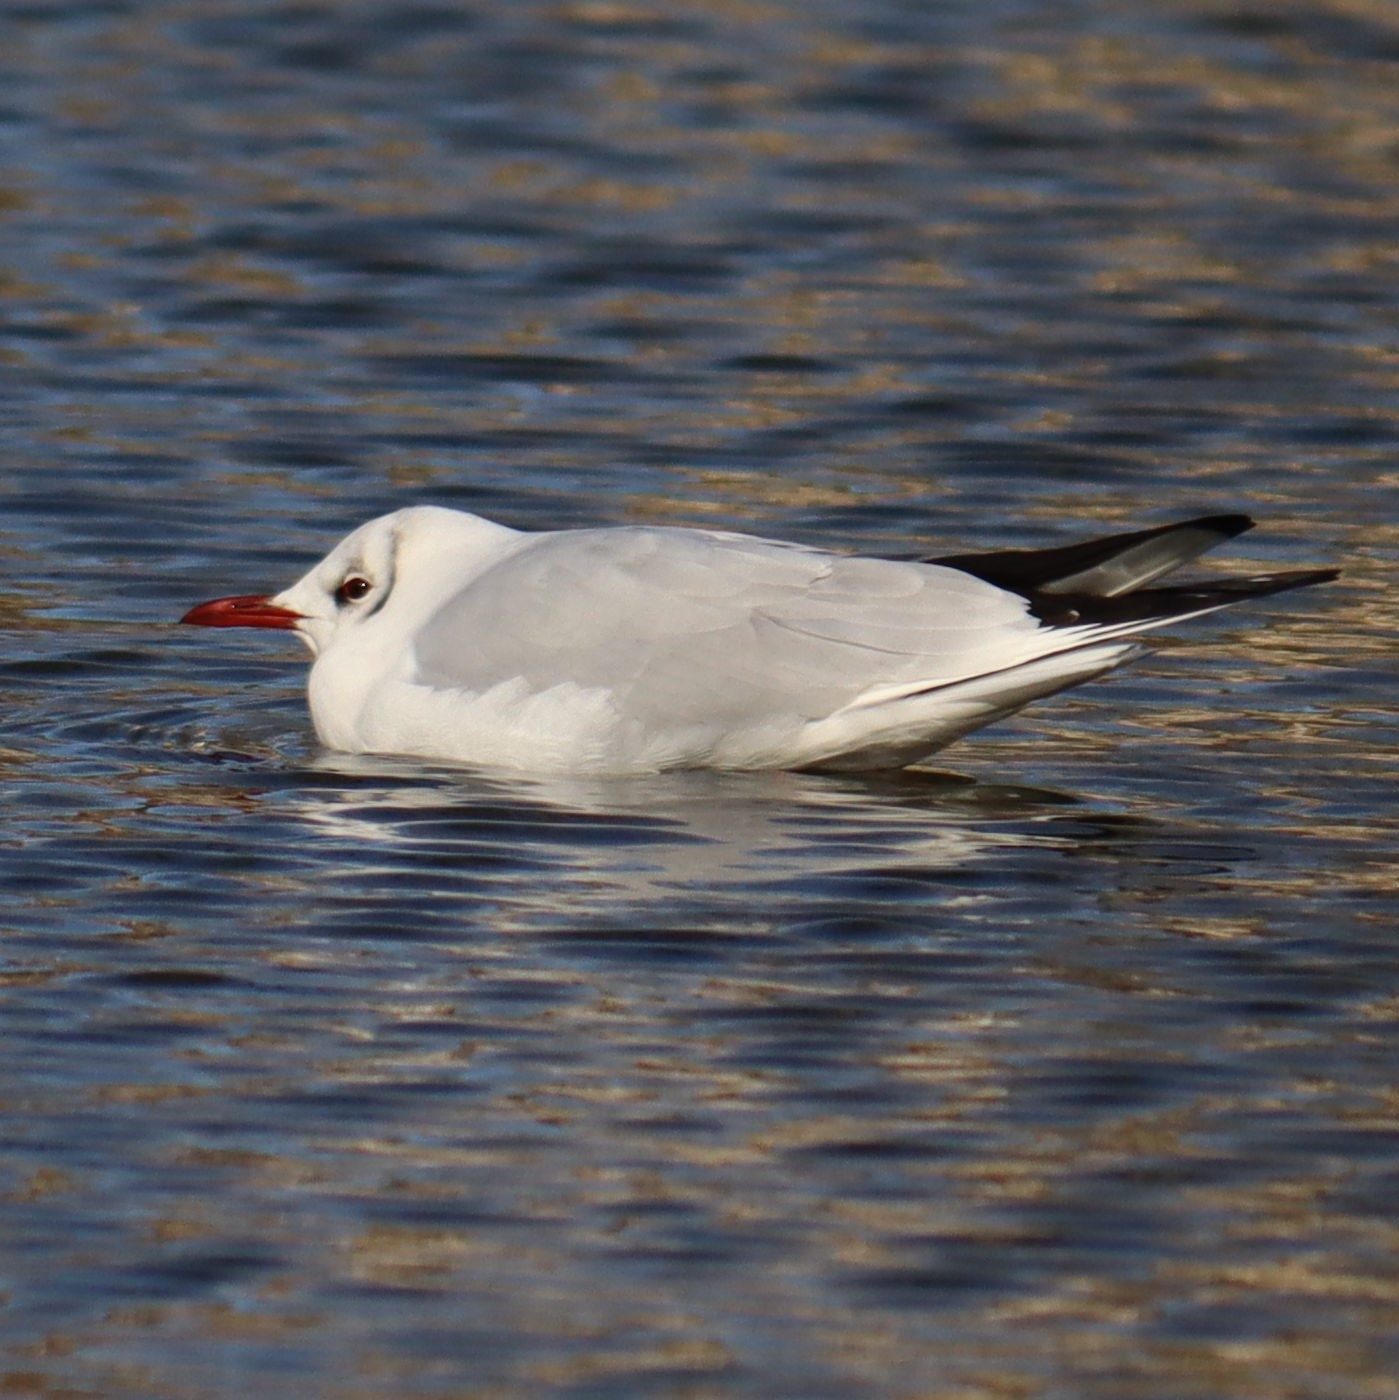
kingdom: Animalia
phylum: Chordata
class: Aves
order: Charadriiformes
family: Laridae
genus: Chroicocephalus
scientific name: Chroicocephalus ridibundus
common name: Black-headed gull
